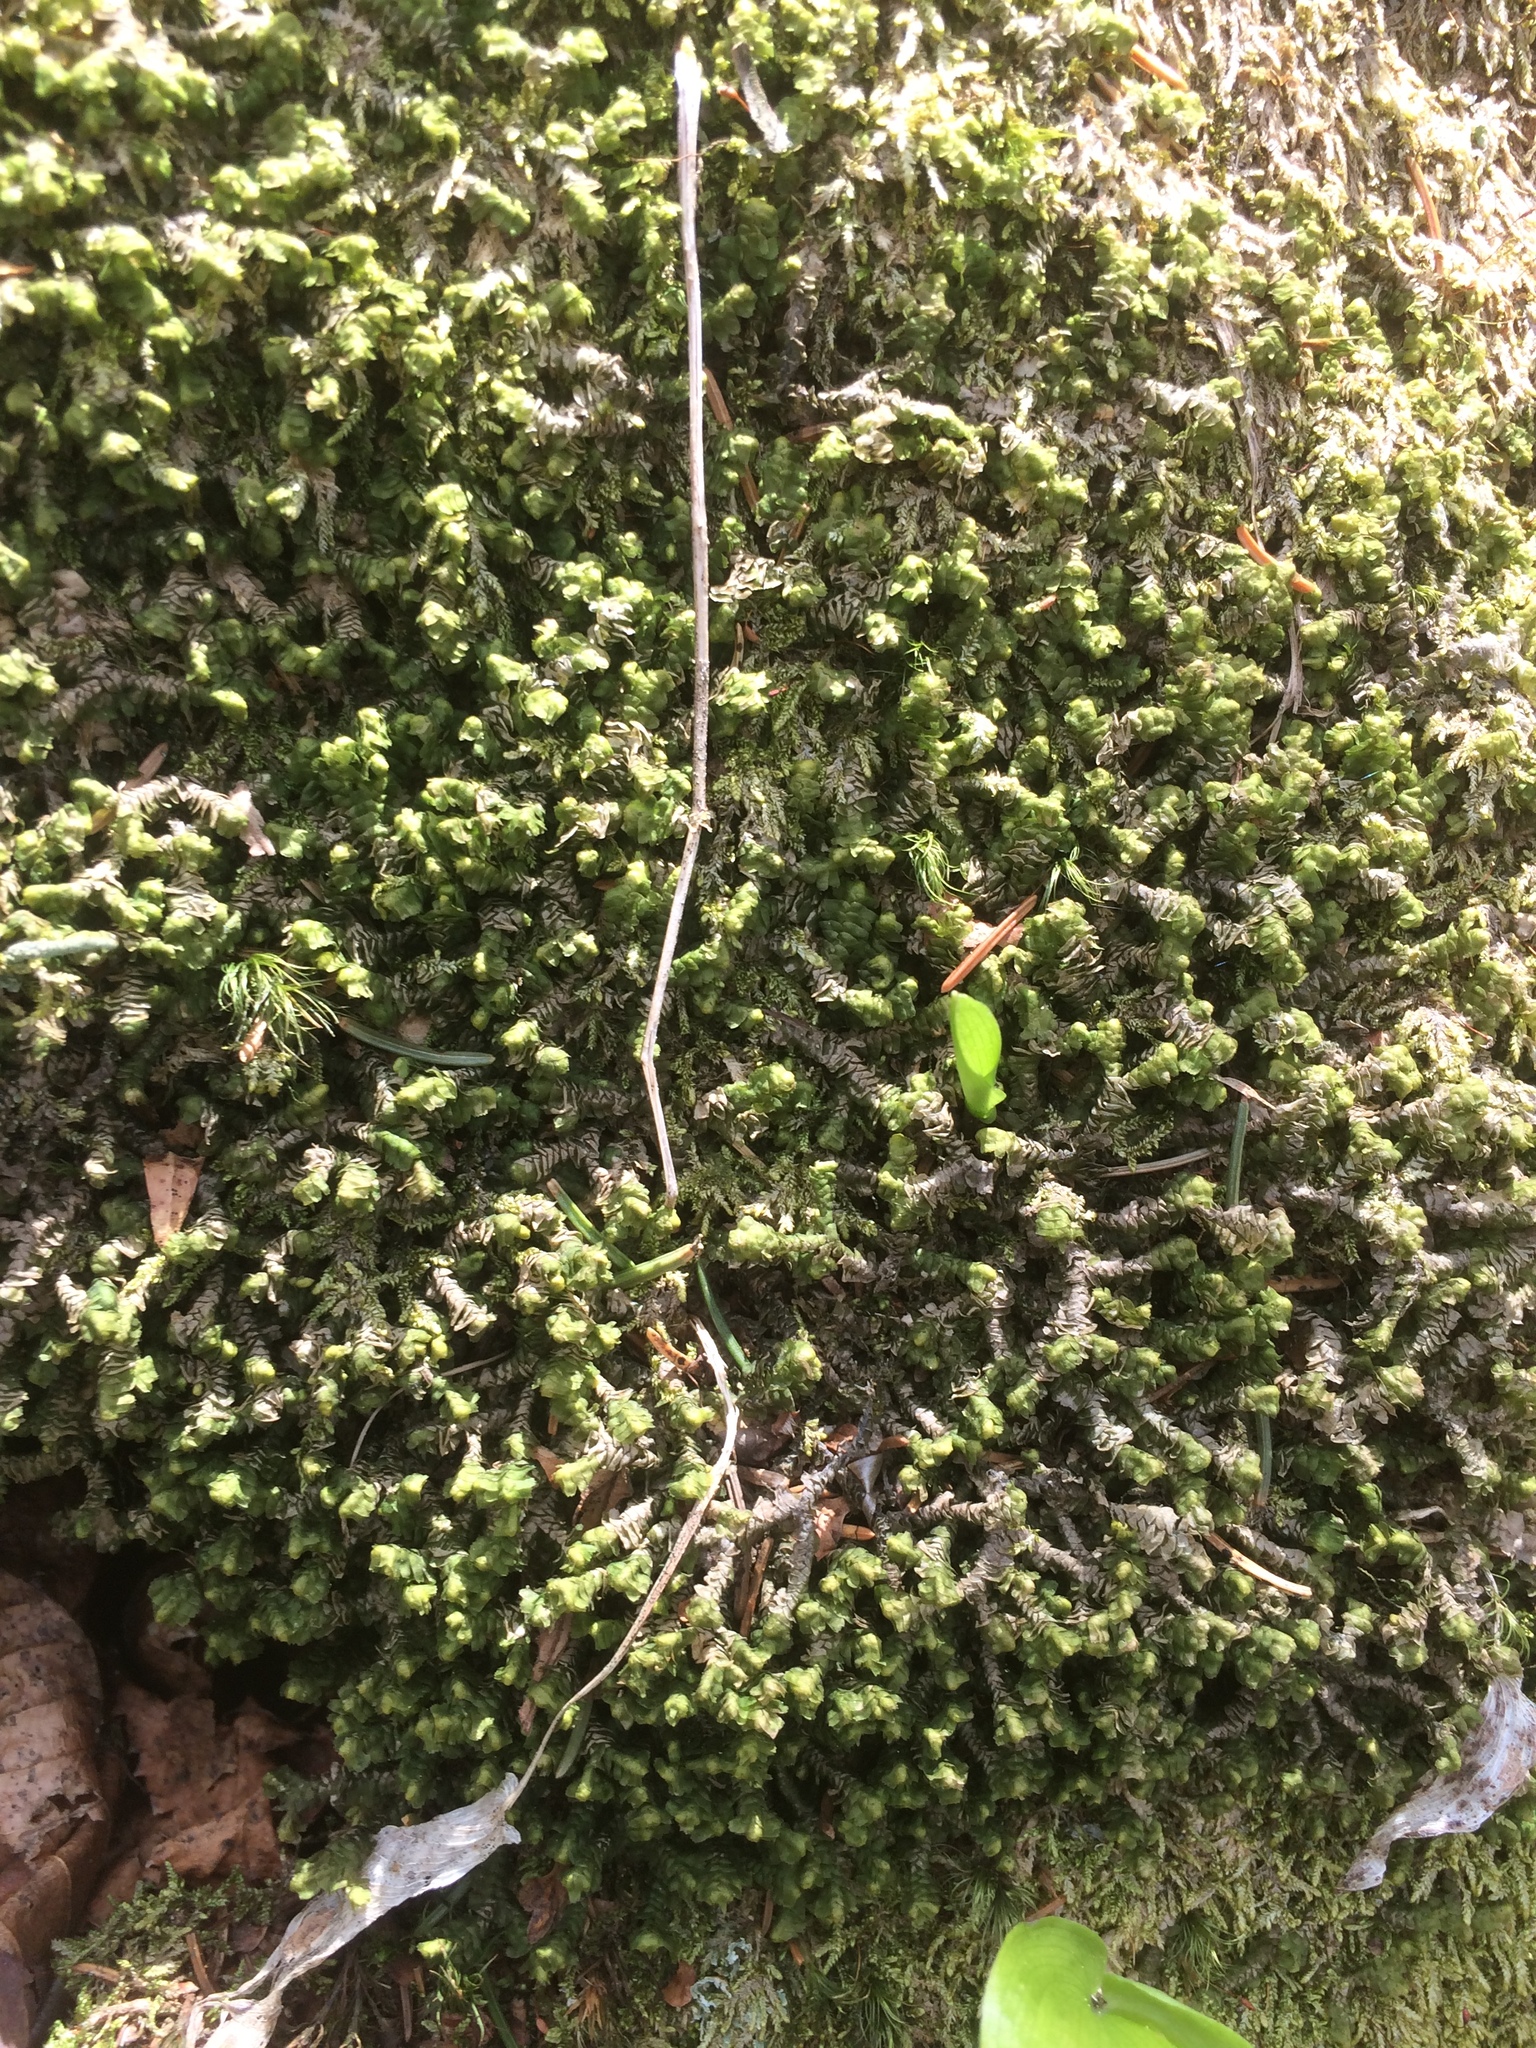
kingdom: Plantae
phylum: Marchantiophyta
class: Jungermanniopsida
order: Jungermanniales
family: Lepidoziaceae
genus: Bazzania
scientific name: Bazzania trilobata
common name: Three-lobed whipwort
